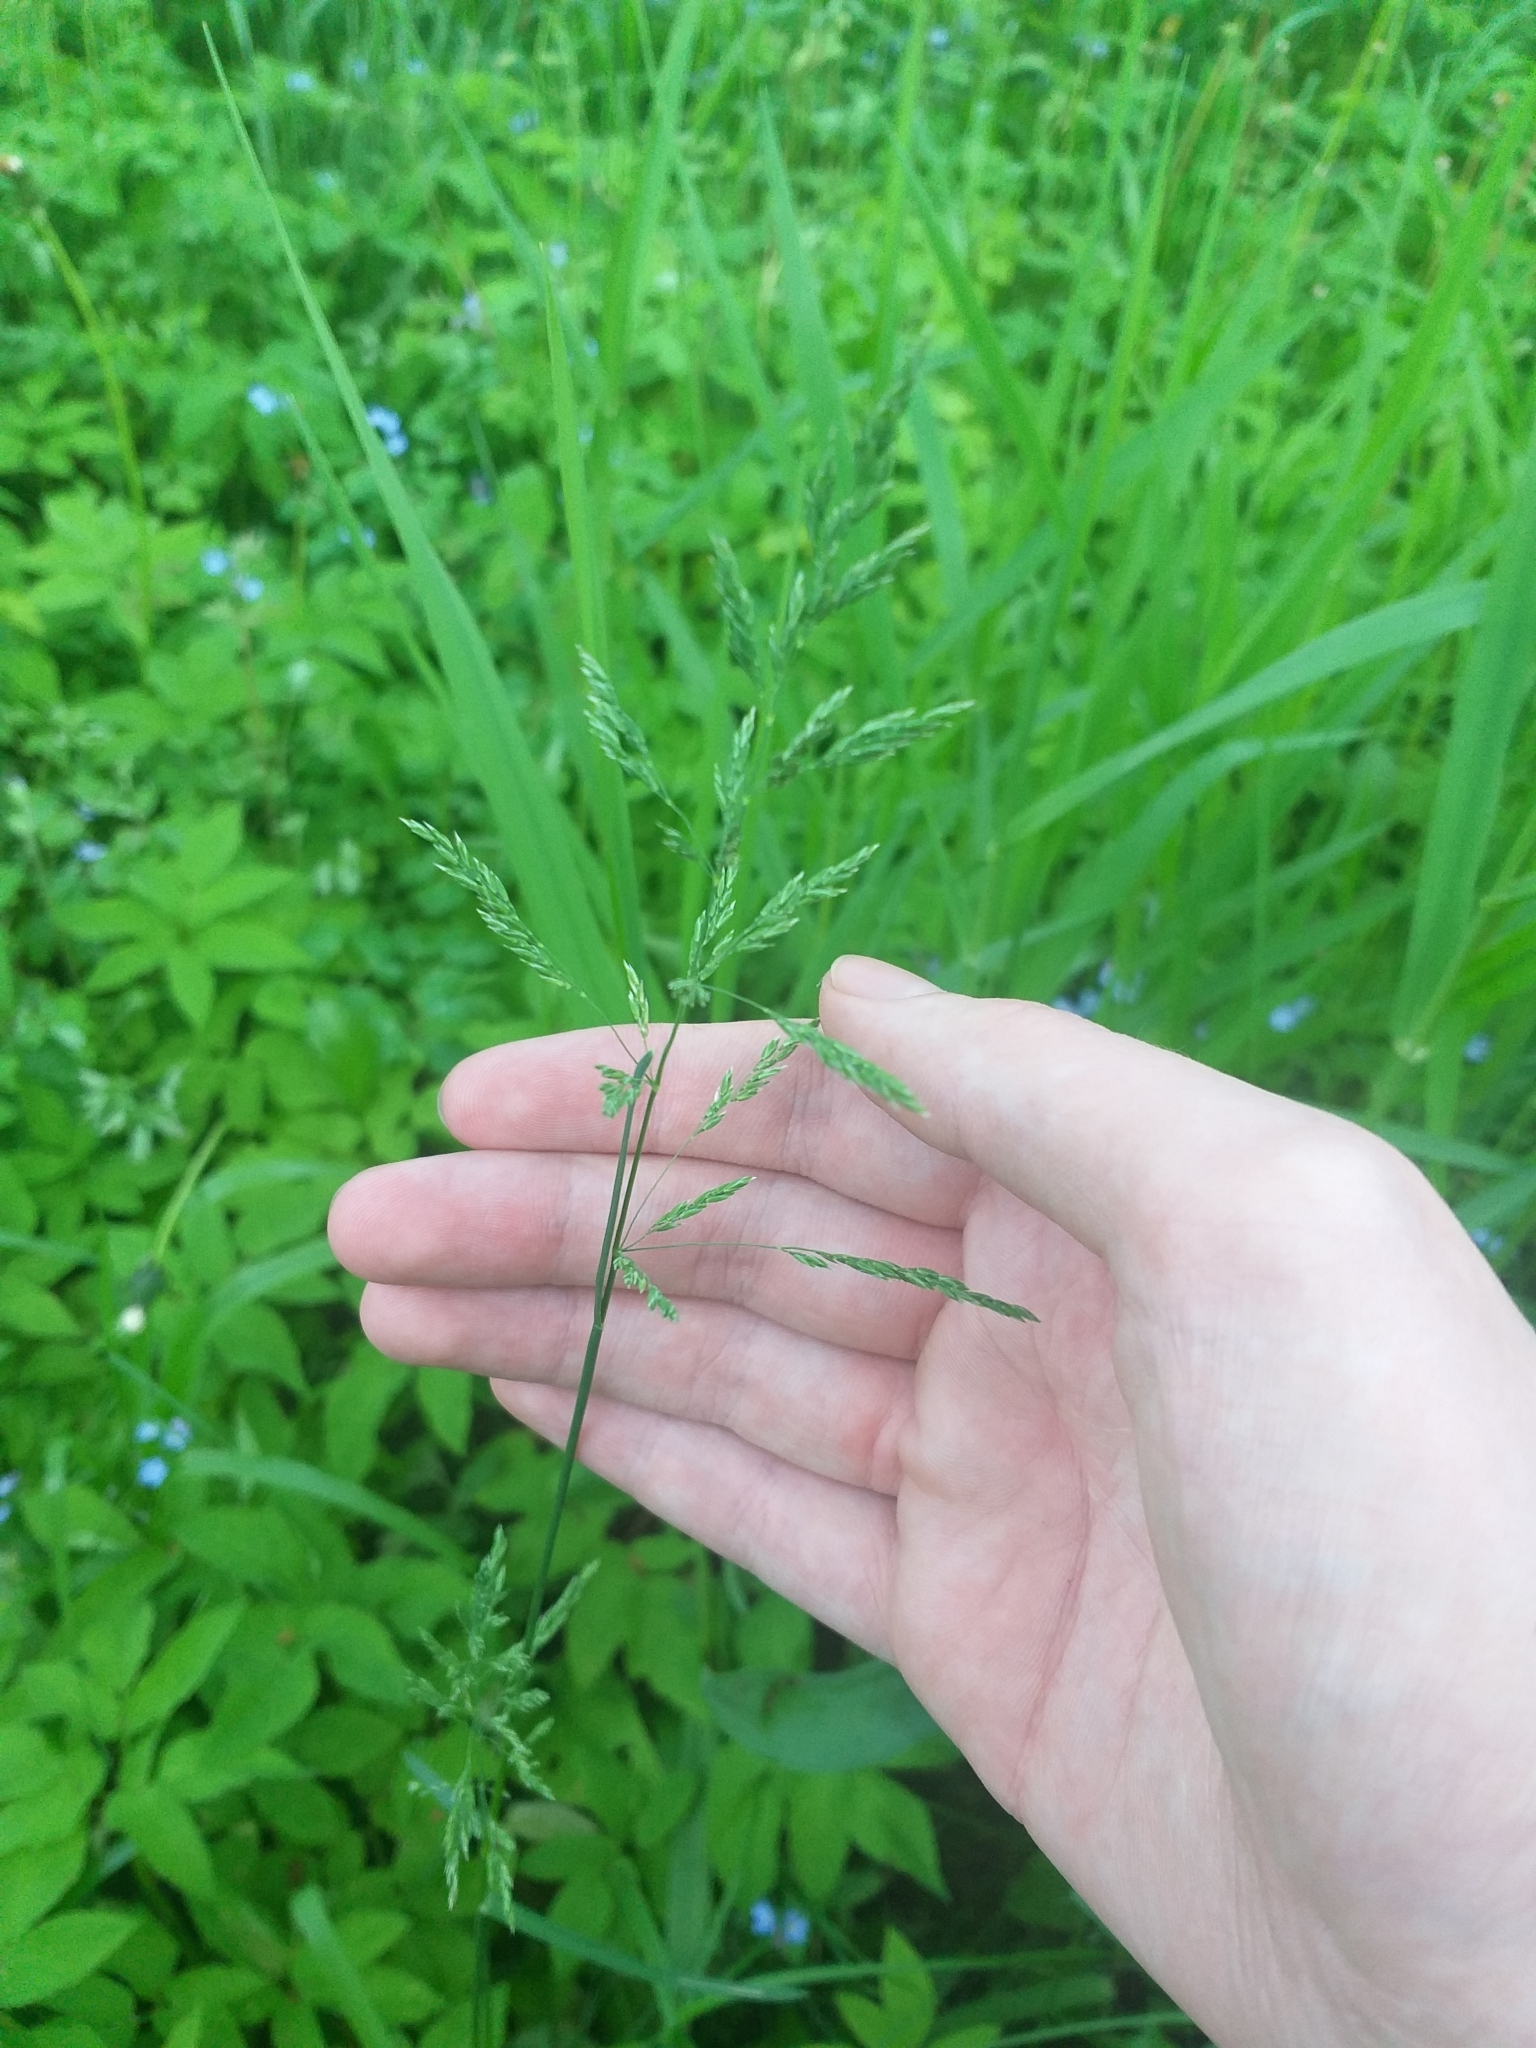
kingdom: Plantae
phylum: Tracheophyta
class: Liliopsida
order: Poales
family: Poaceae
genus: Poa
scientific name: Poa pratensis
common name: Kentucky bluegrass
